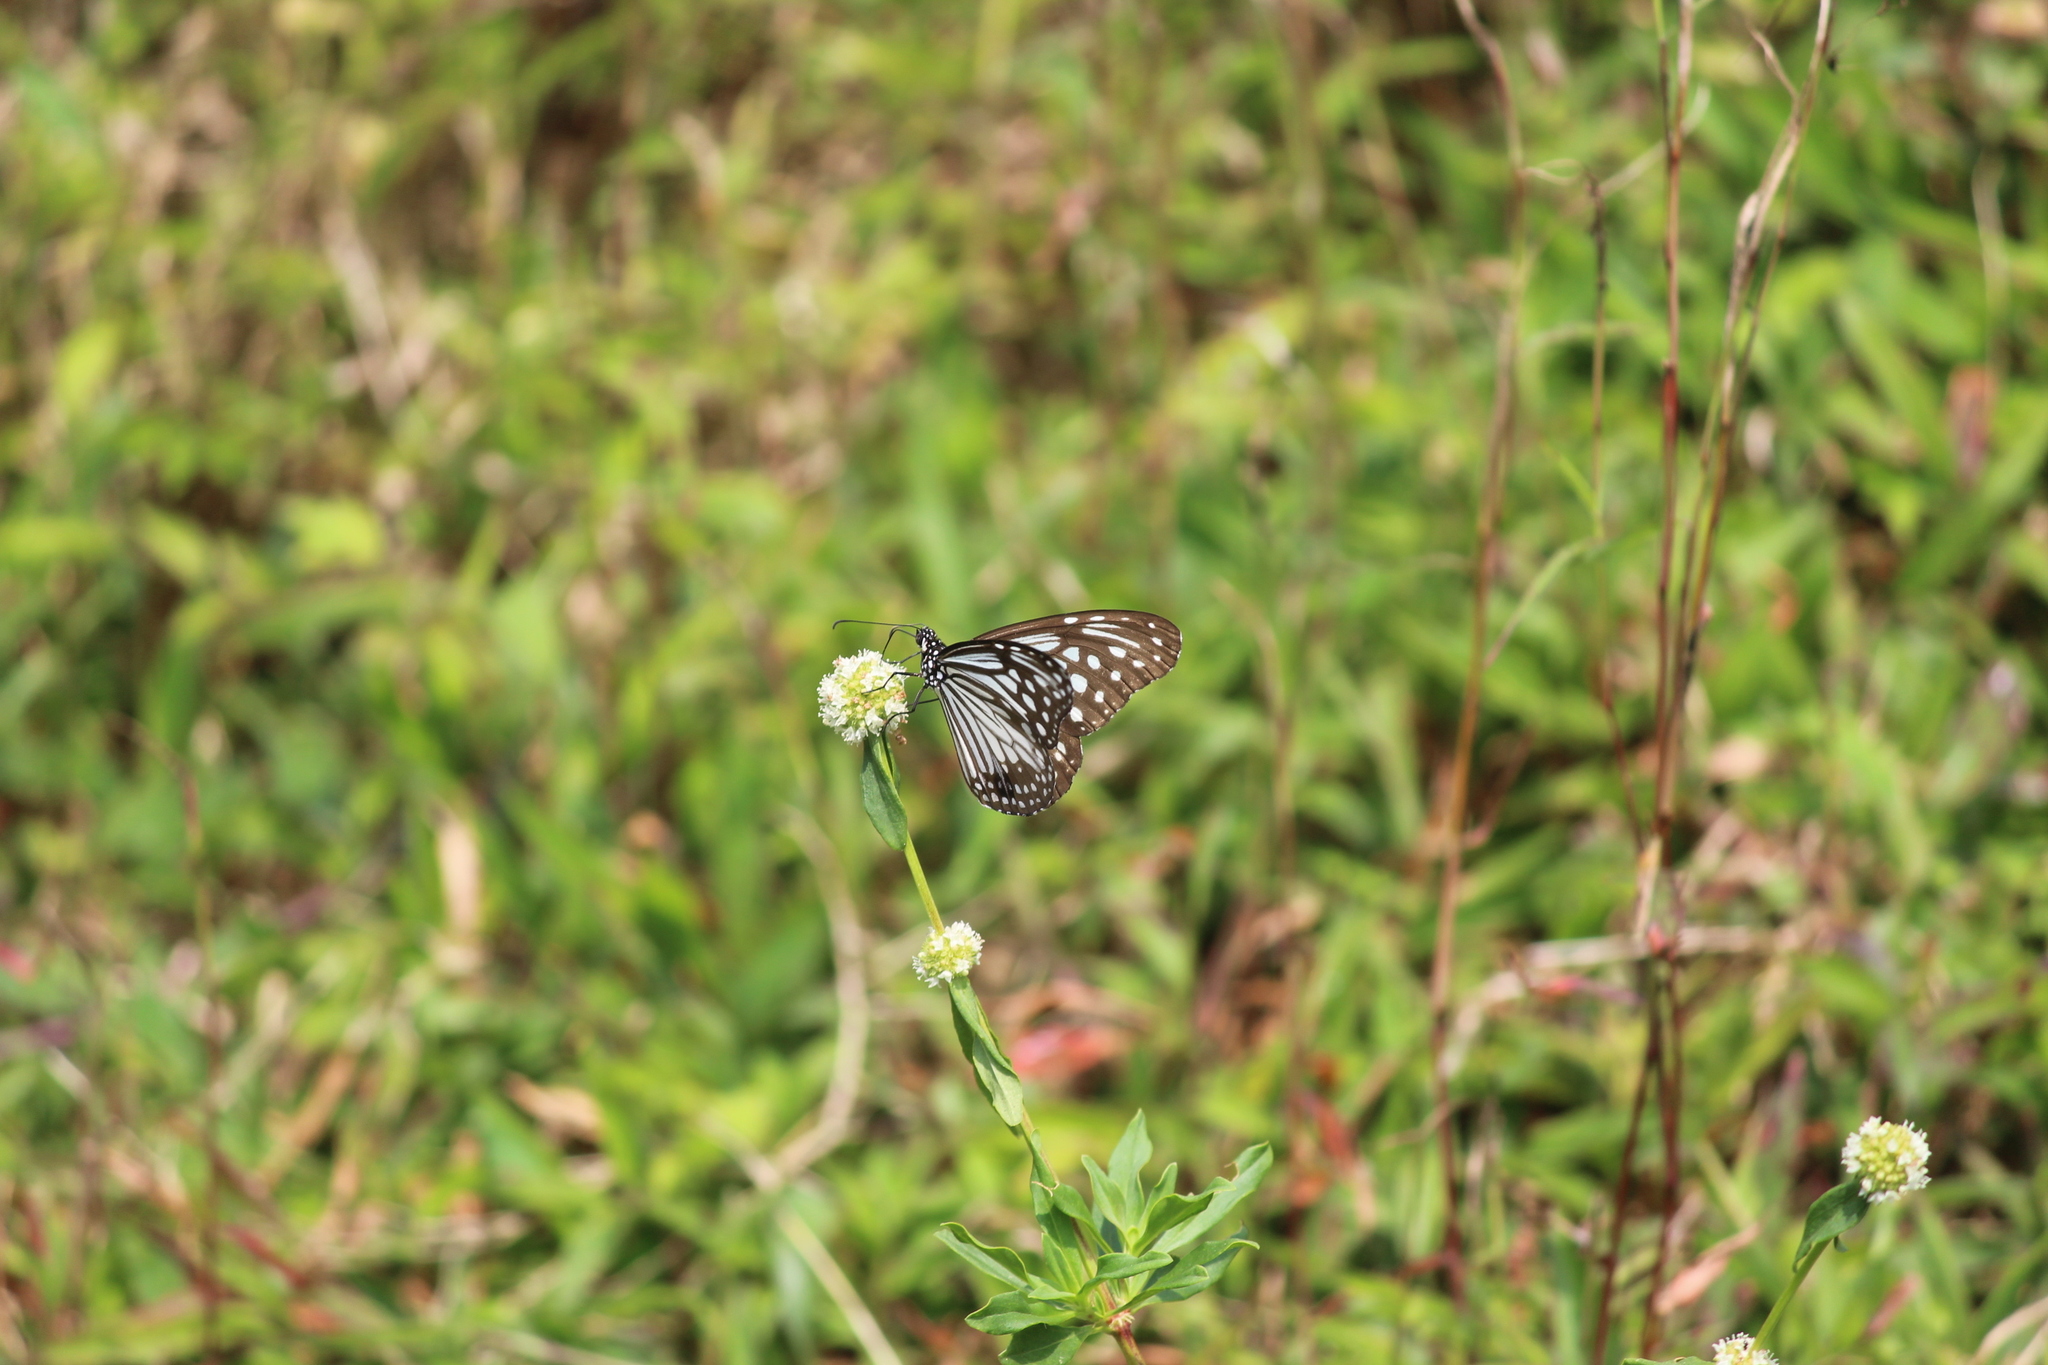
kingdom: Animalia
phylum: Arthropoda
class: Insecta
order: Lepidoptera
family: Nymphalidae
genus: Parantica
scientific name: Parantica aglea
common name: Glassy tiger
